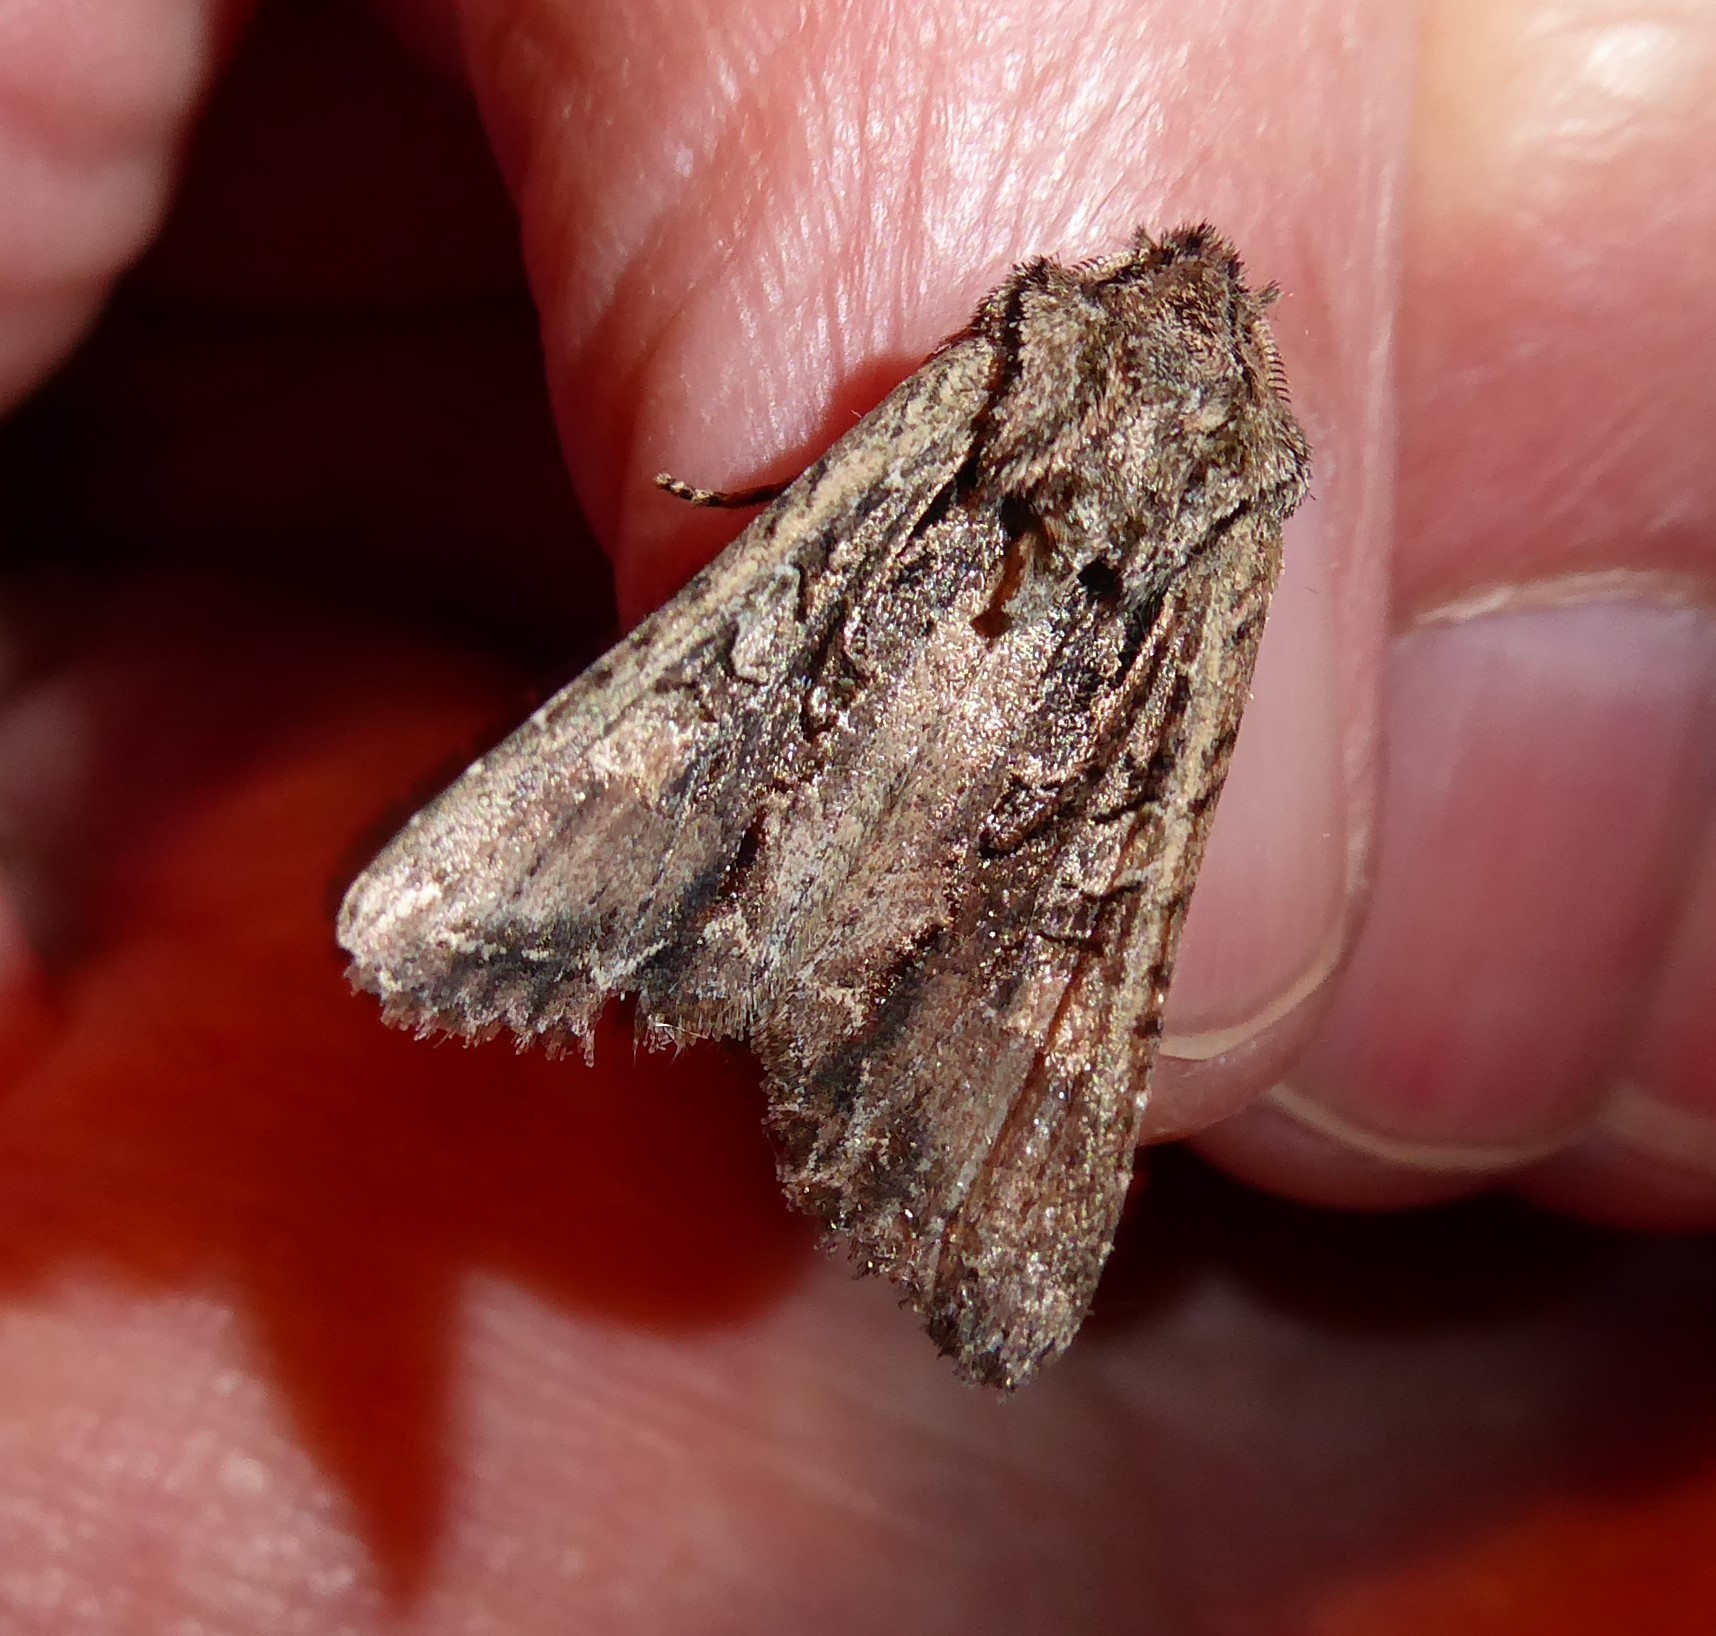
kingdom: Animalia
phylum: Arthropoda
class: Insecta
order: Lepidoptera
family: Noctuidae
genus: Ichneutica
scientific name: Ichneutica mutans
